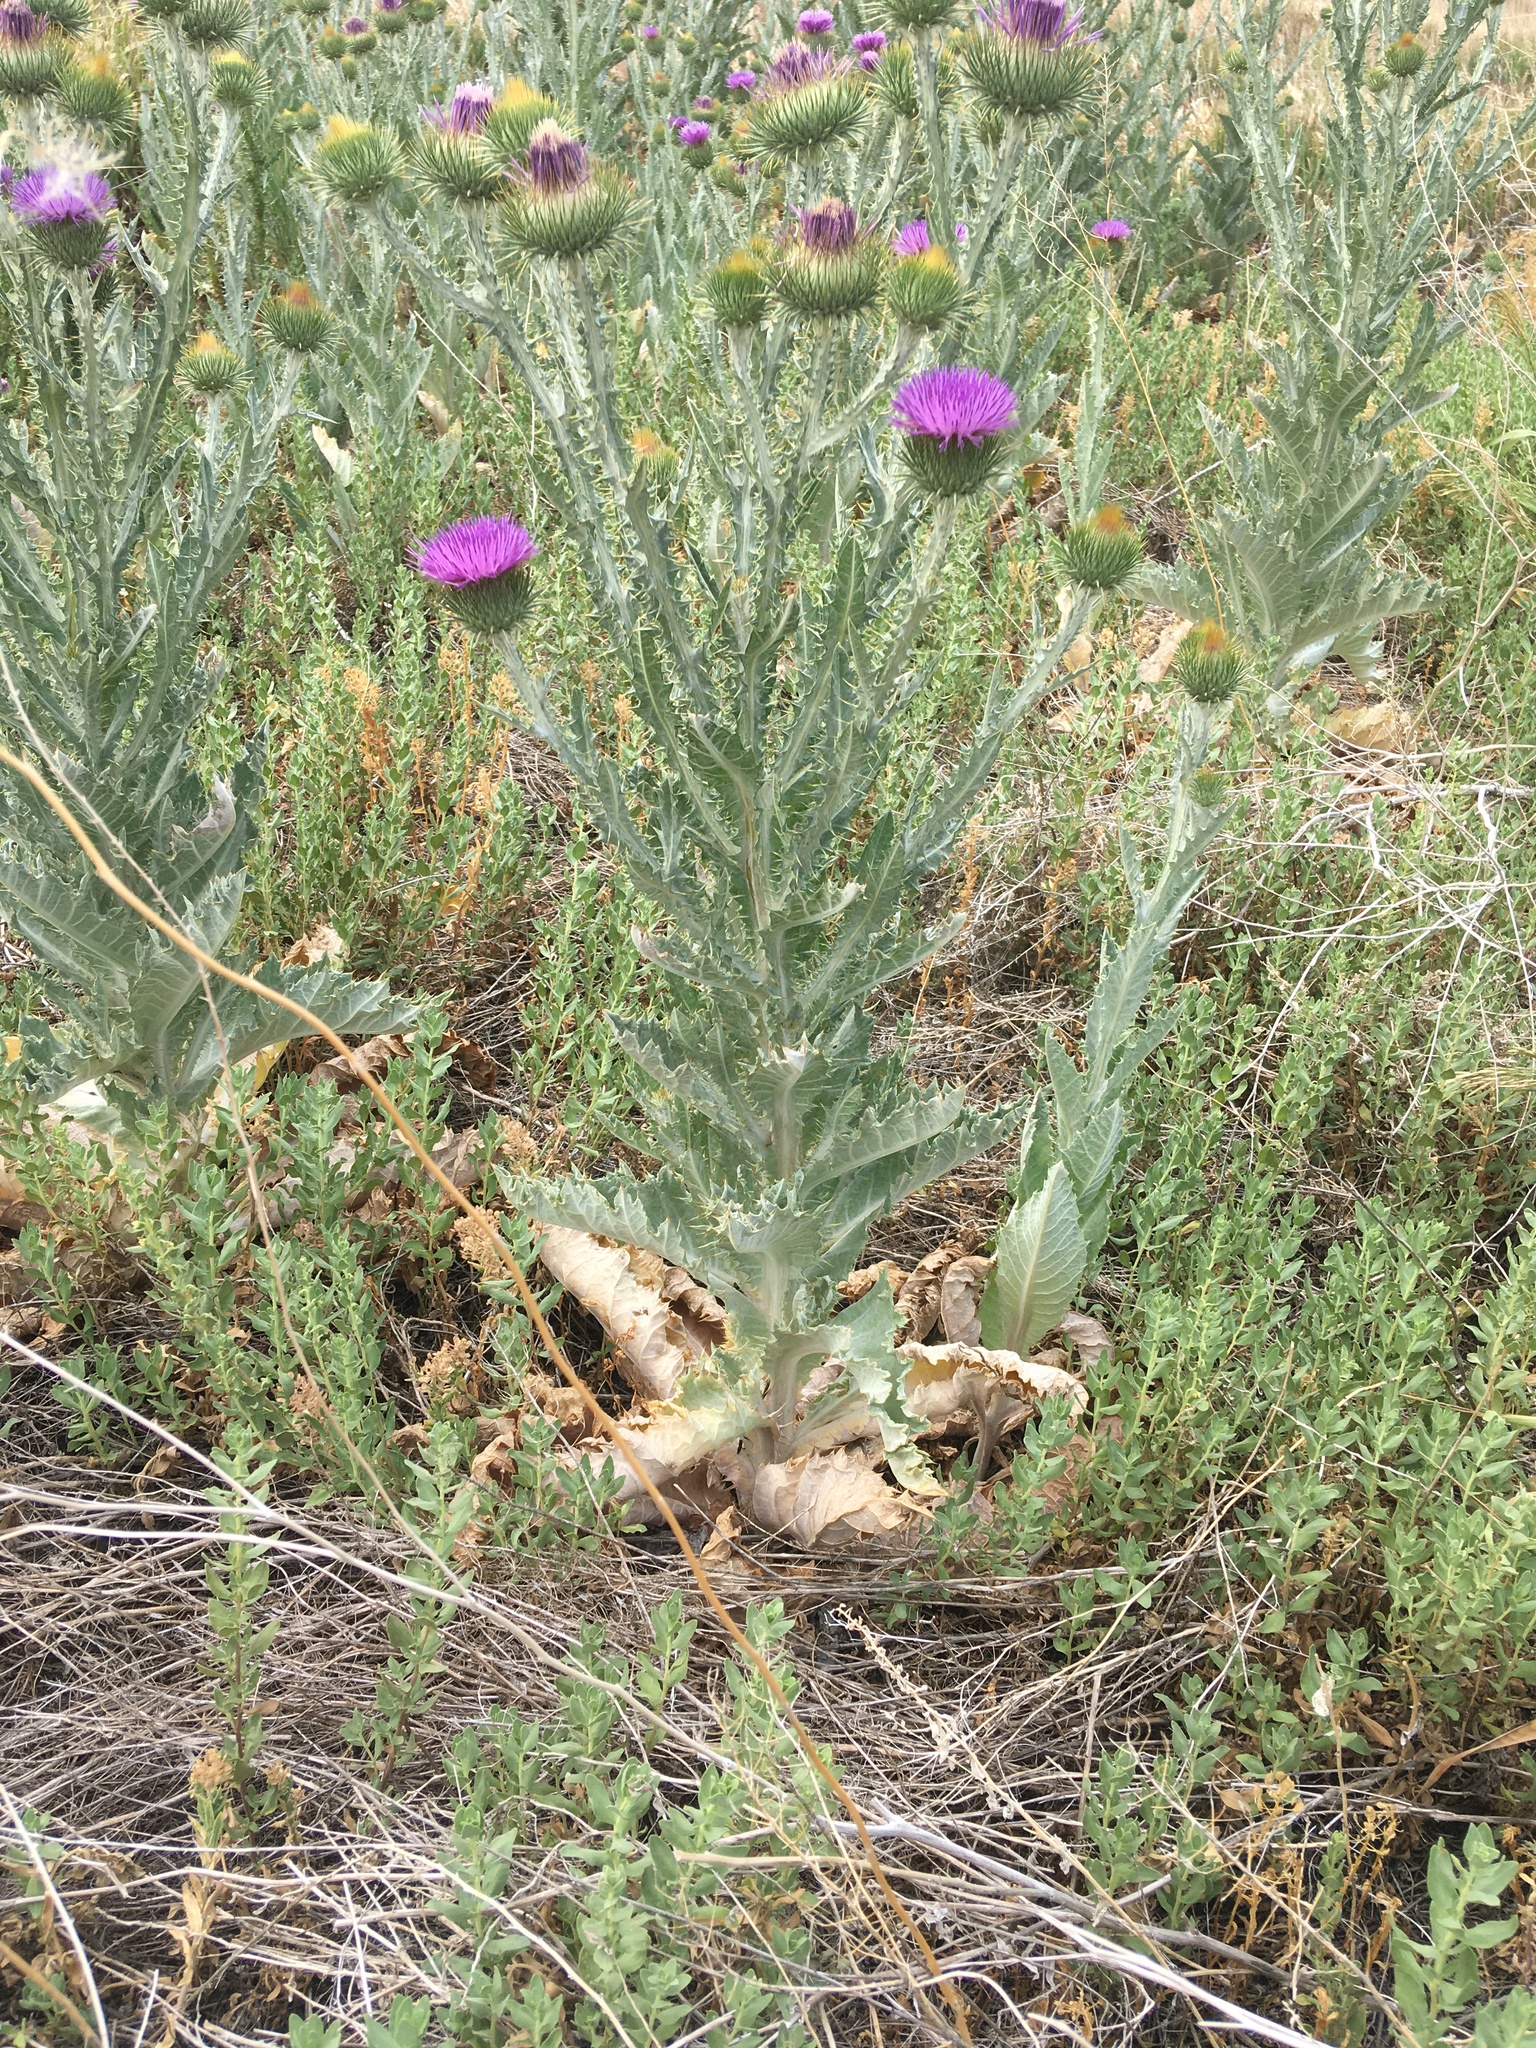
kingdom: Plantae
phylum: Tracheophyta
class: Magnoliopsida
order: Asterales
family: Asteraceae
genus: Onopordum
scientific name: Onopordum acanthium
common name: Scotch thistle
